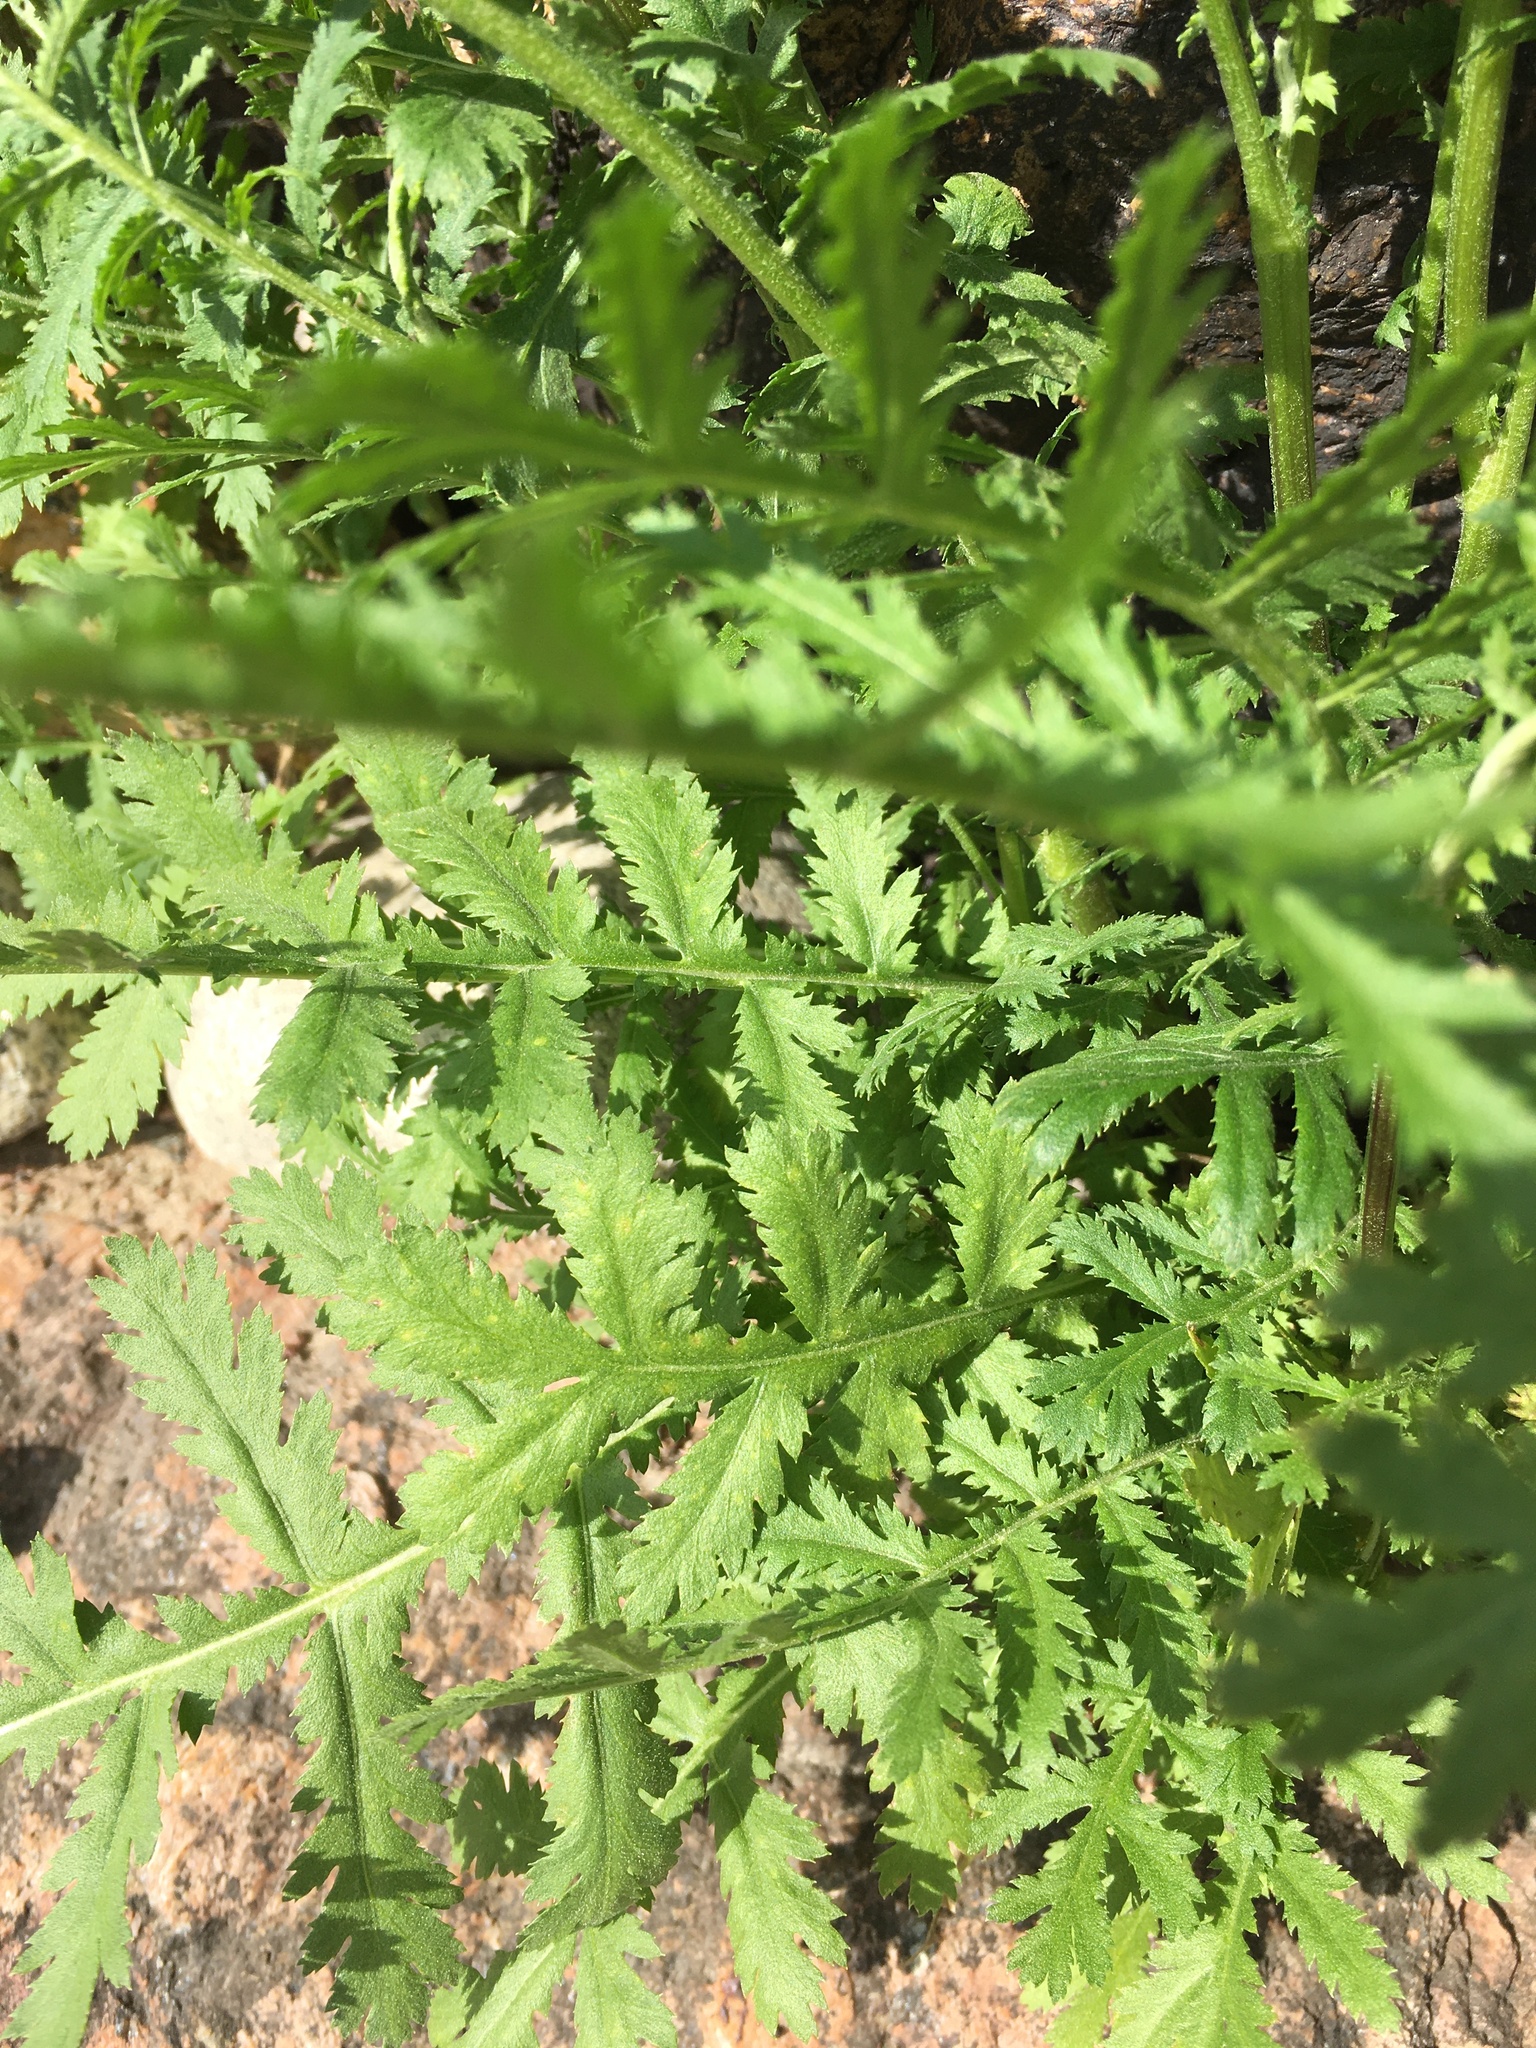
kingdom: Plantae
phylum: Tracheophyta
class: Magnoliopsida
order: Asterales
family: Asteraceae
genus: Tanacetum
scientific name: Tanacetum vulgare
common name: Common tansy
